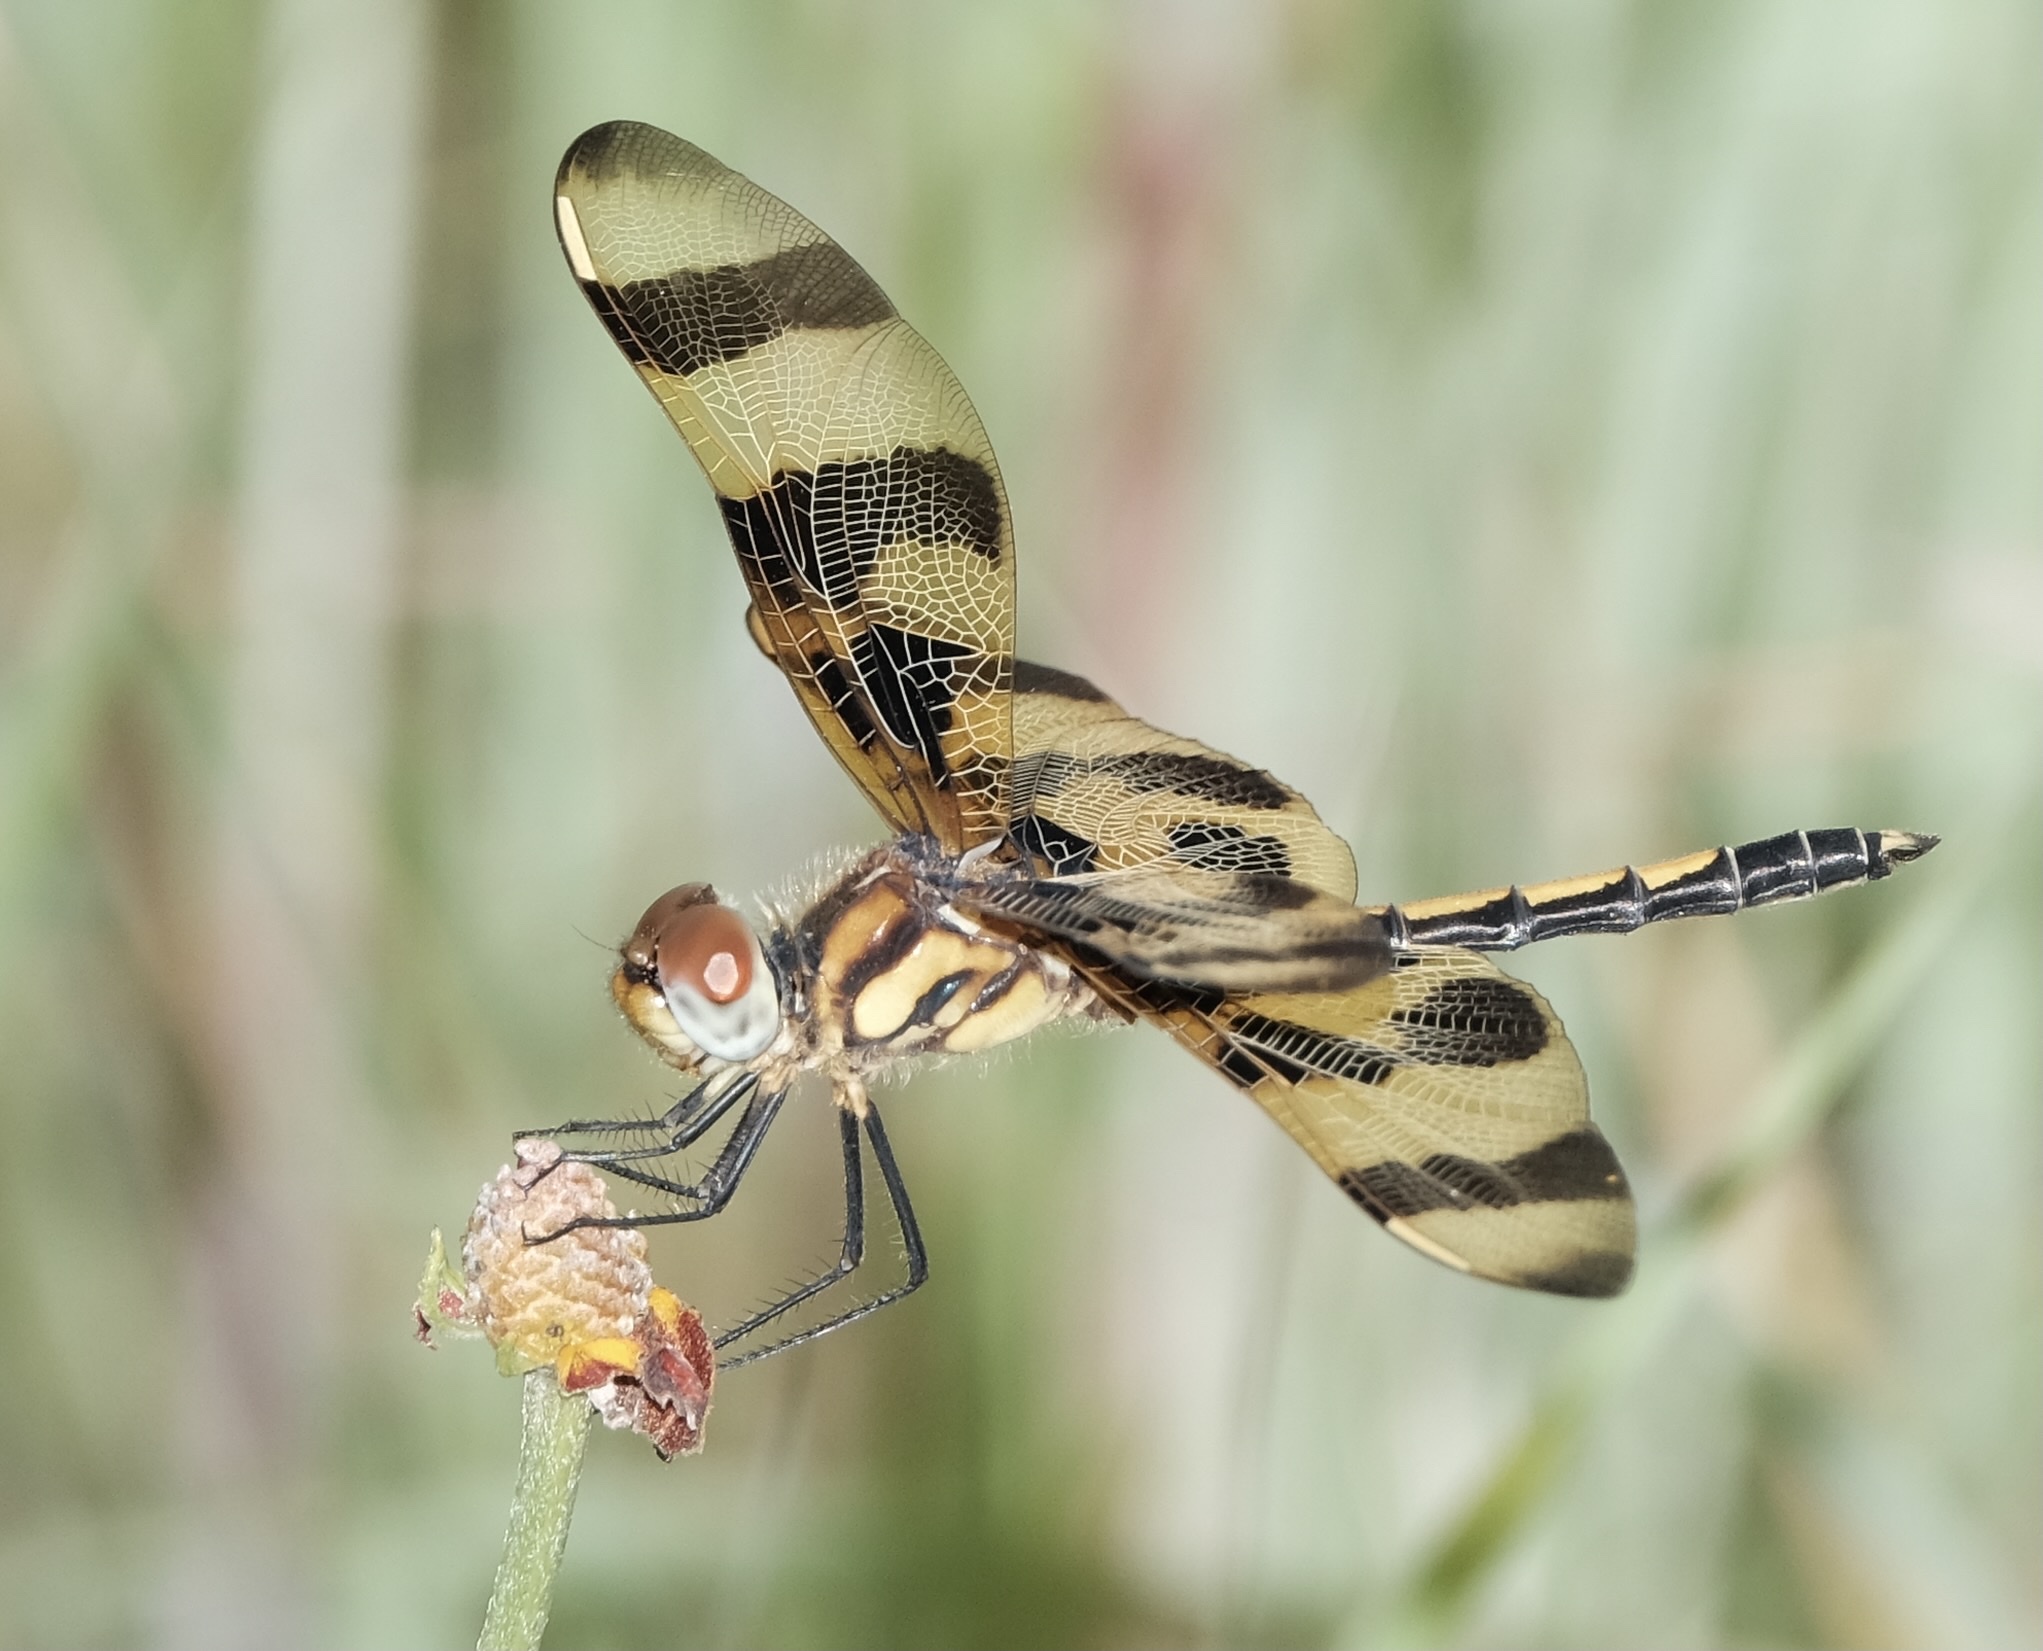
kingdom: Animalia
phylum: Arthropoda
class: Insecta
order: Odonata
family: Libellulidae
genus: Celithemis
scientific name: Celithemis eponina
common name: Halloween pennant
